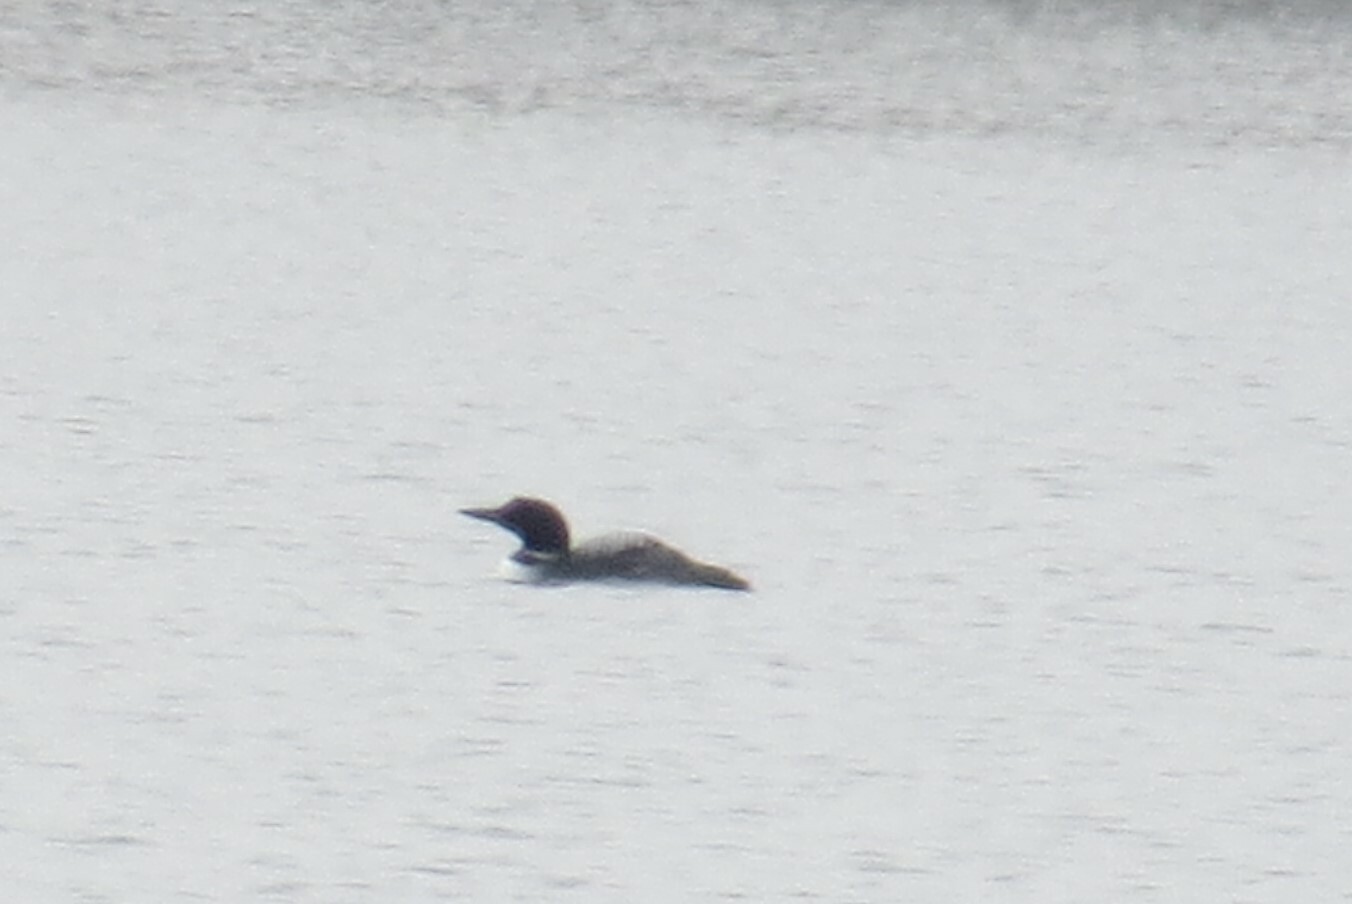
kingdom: Animalia
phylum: Chordata
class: Aves
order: Gaviiformes
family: Gaviidae
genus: Gavia
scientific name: Gavia immer
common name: Common loon
